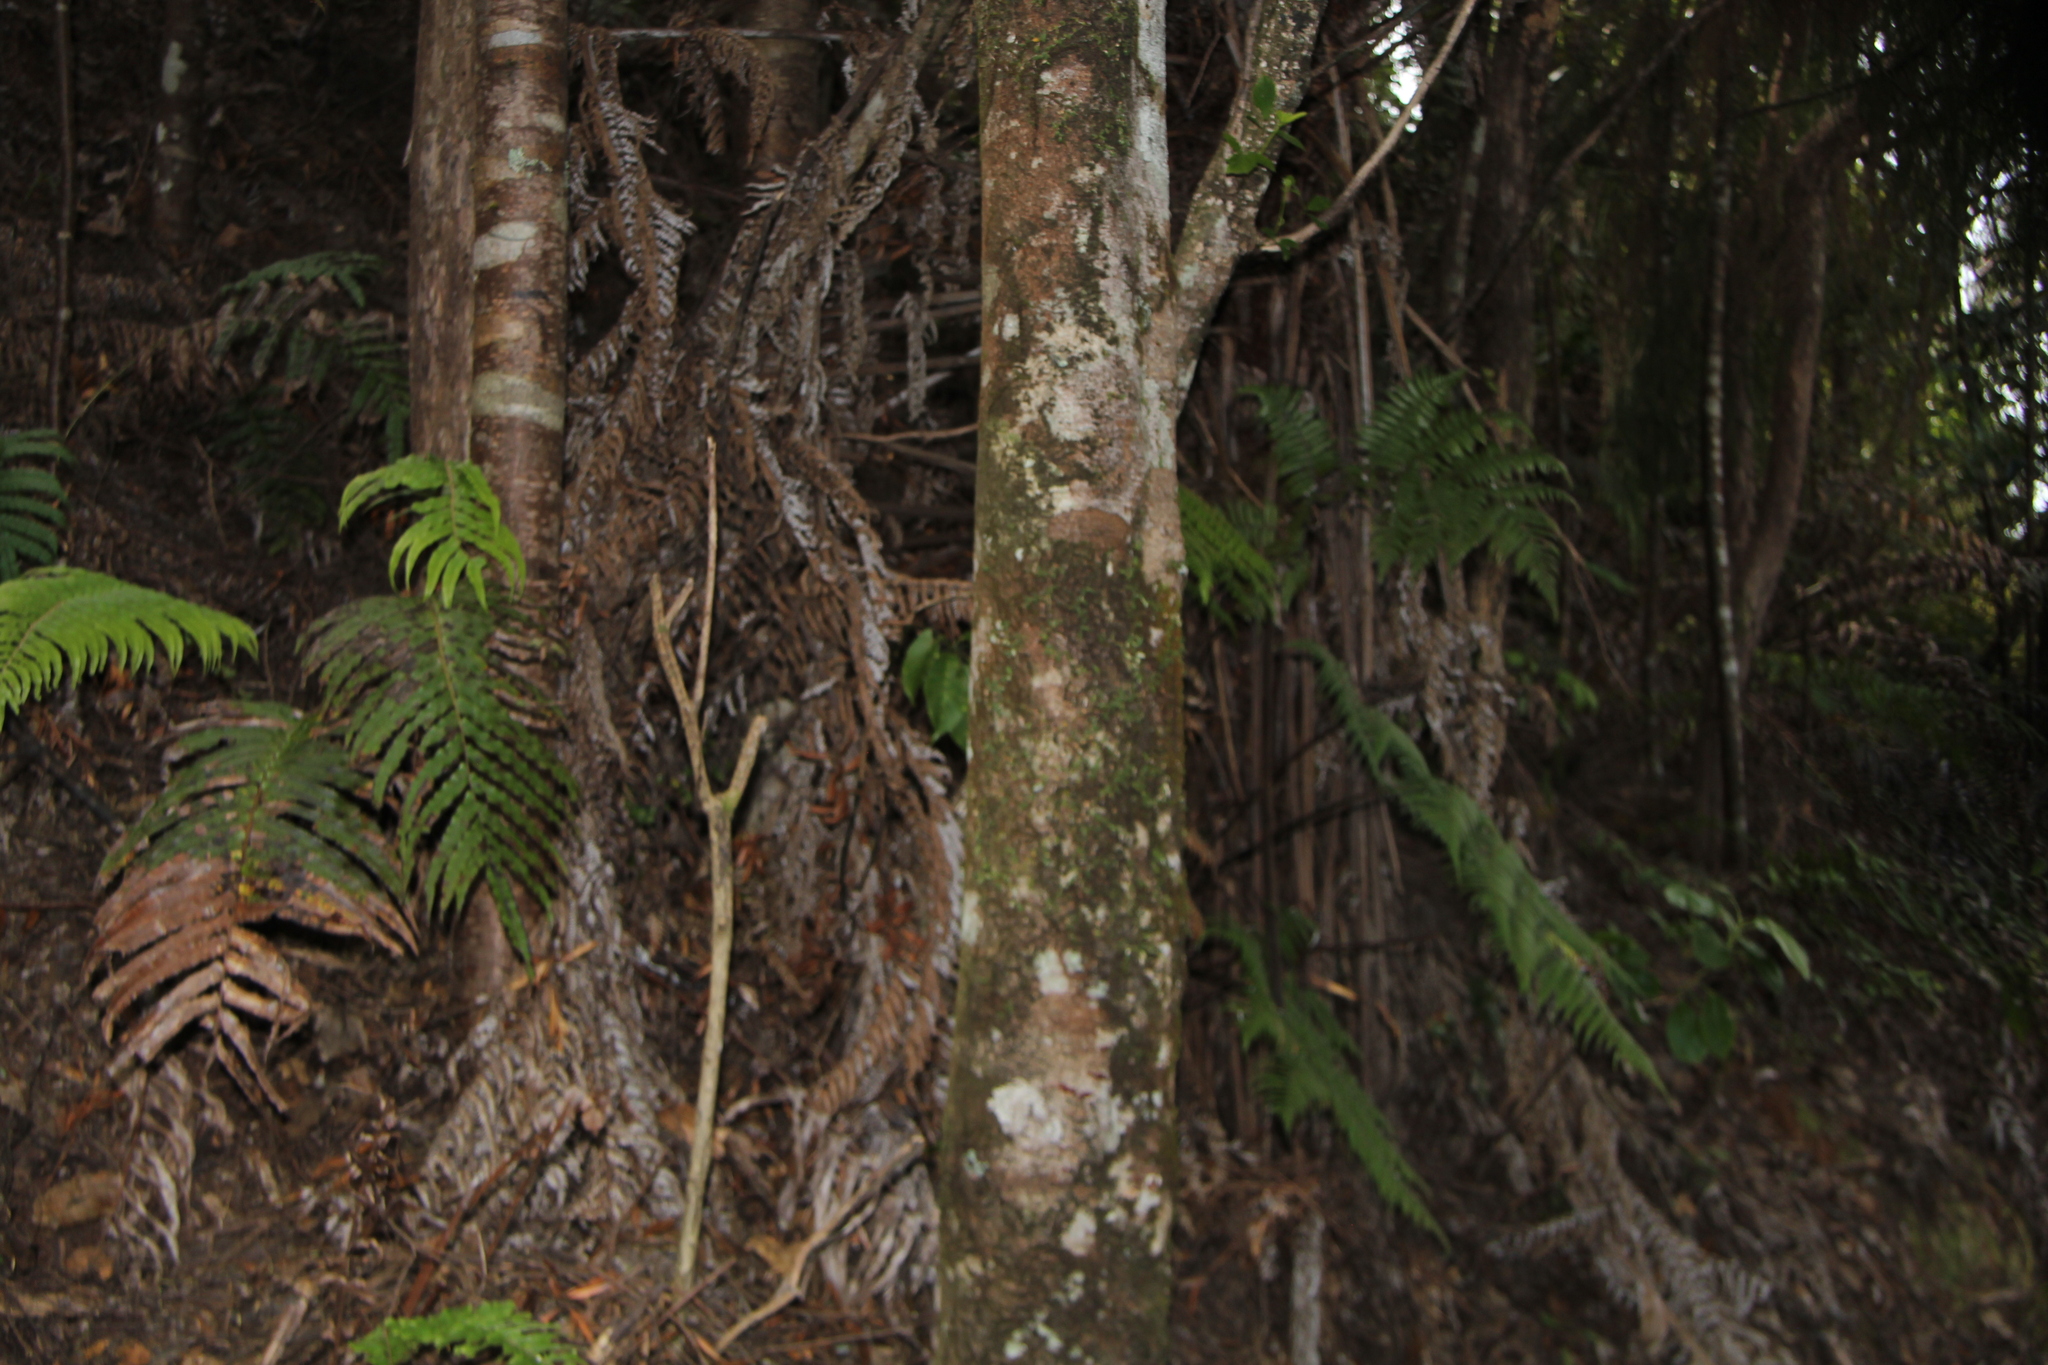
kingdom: Plantae
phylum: Tracheophyta
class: Liliopsida
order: Asparagales
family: Orchidaceae
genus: Bulbophyllum
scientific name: Bulbophyllum pygmaeum
